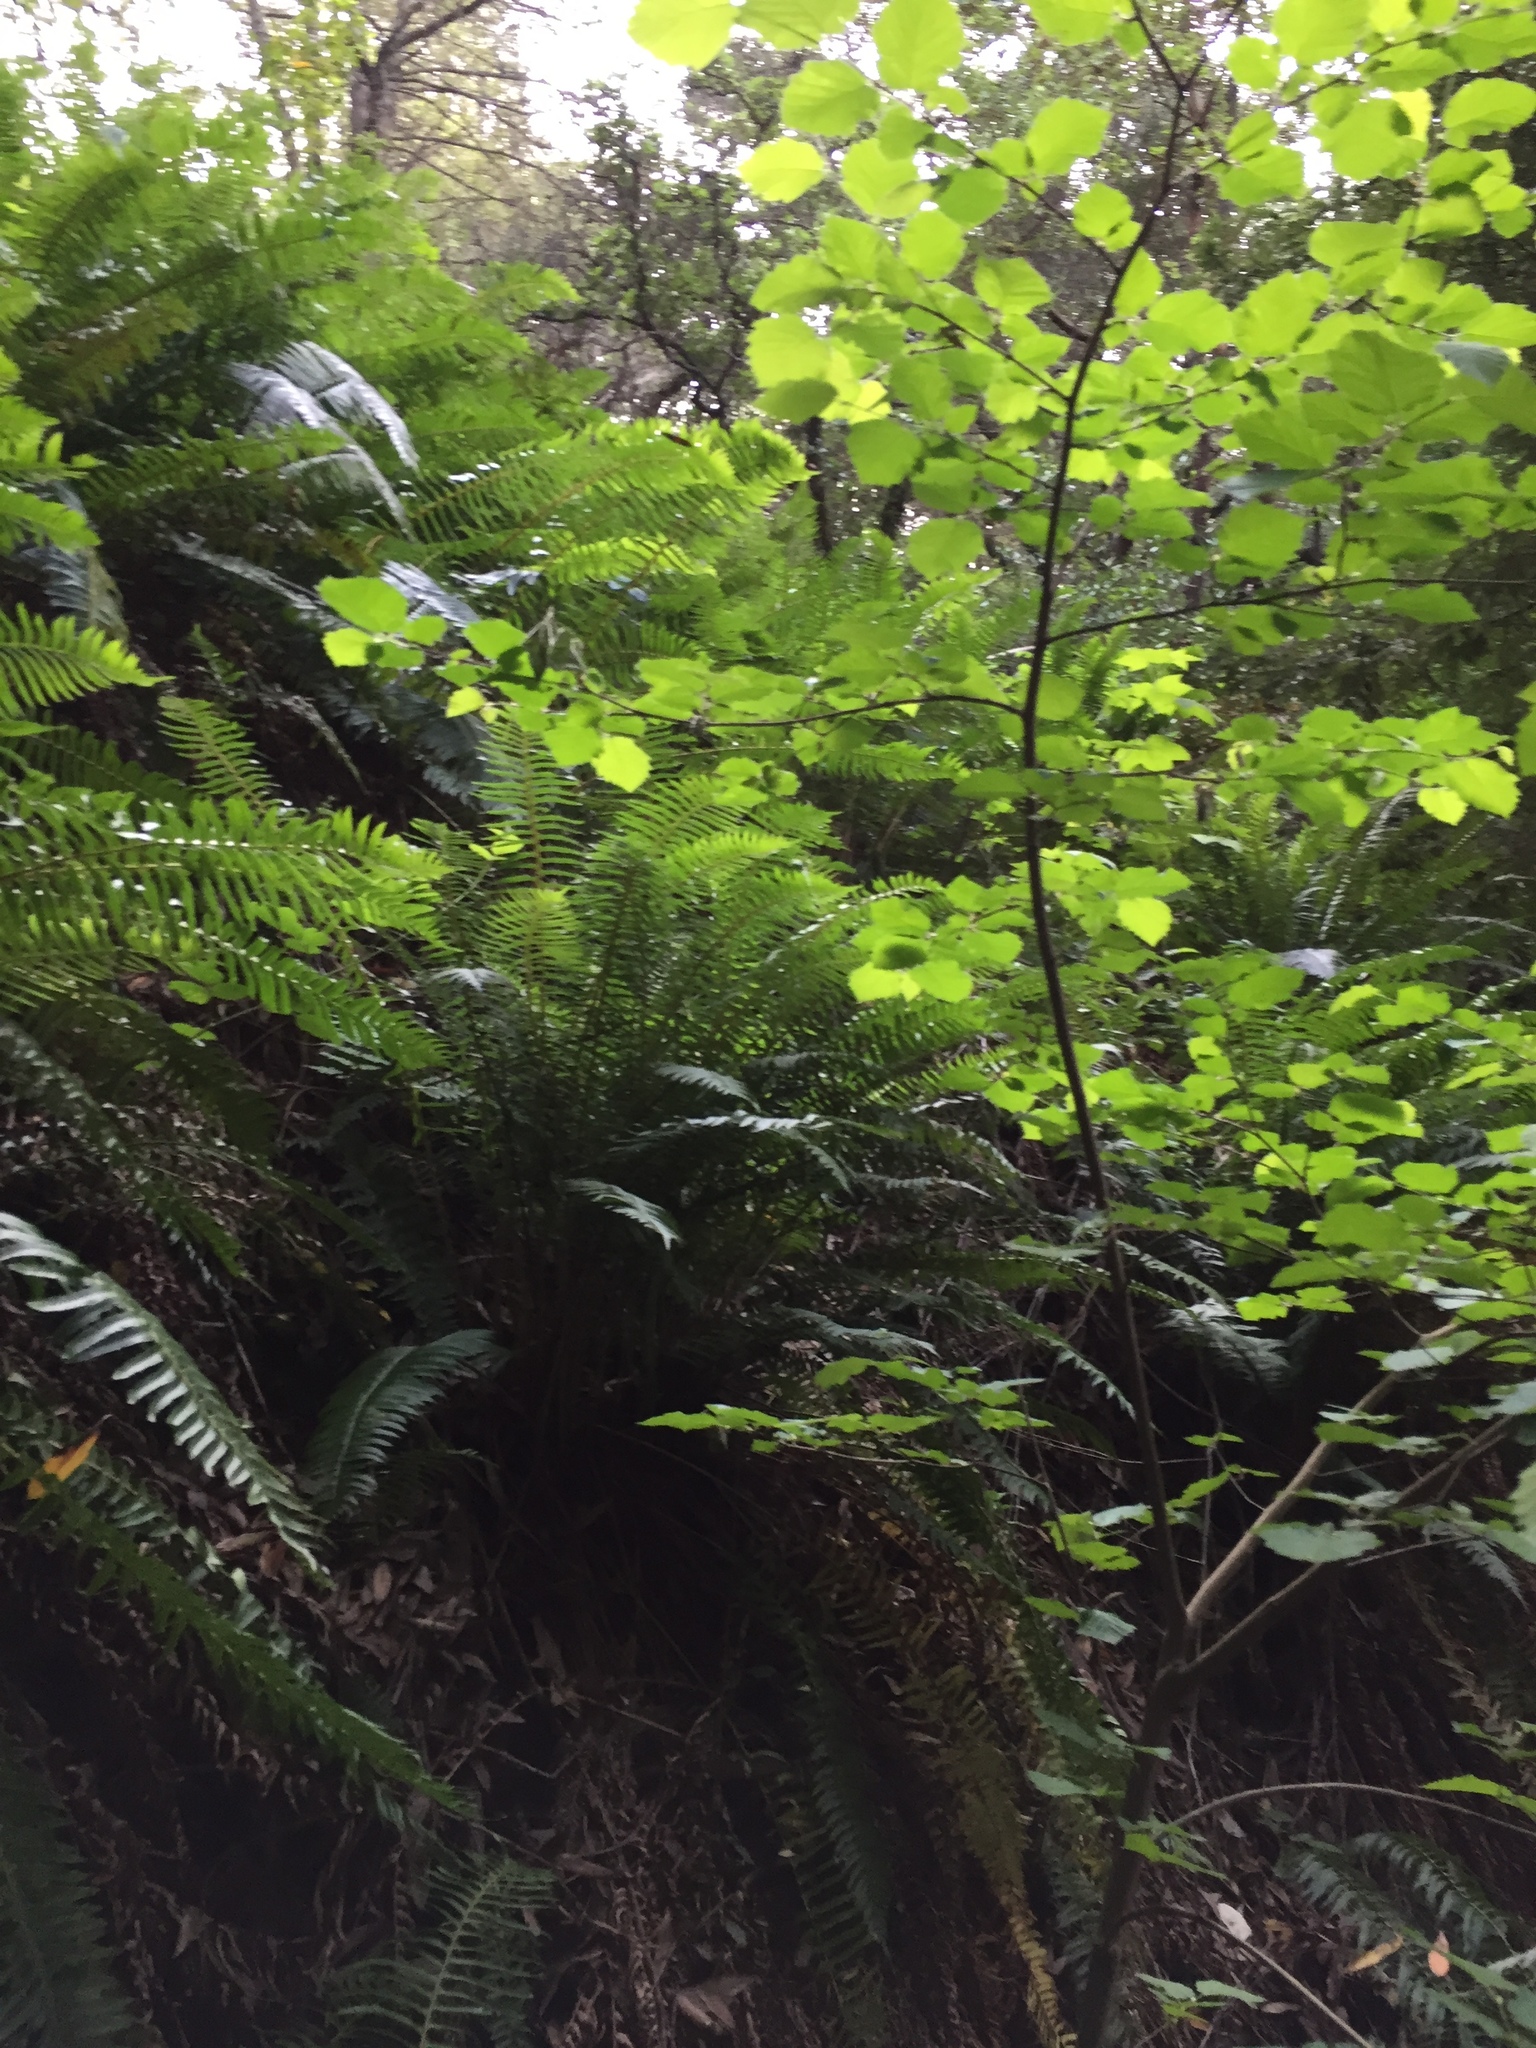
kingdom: Plantae
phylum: Tracheophyta
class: Magnoliopsida
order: Fagales
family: Betulaceae
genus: Corylus
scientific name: Corylus cornuta
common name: Beaked hazel
